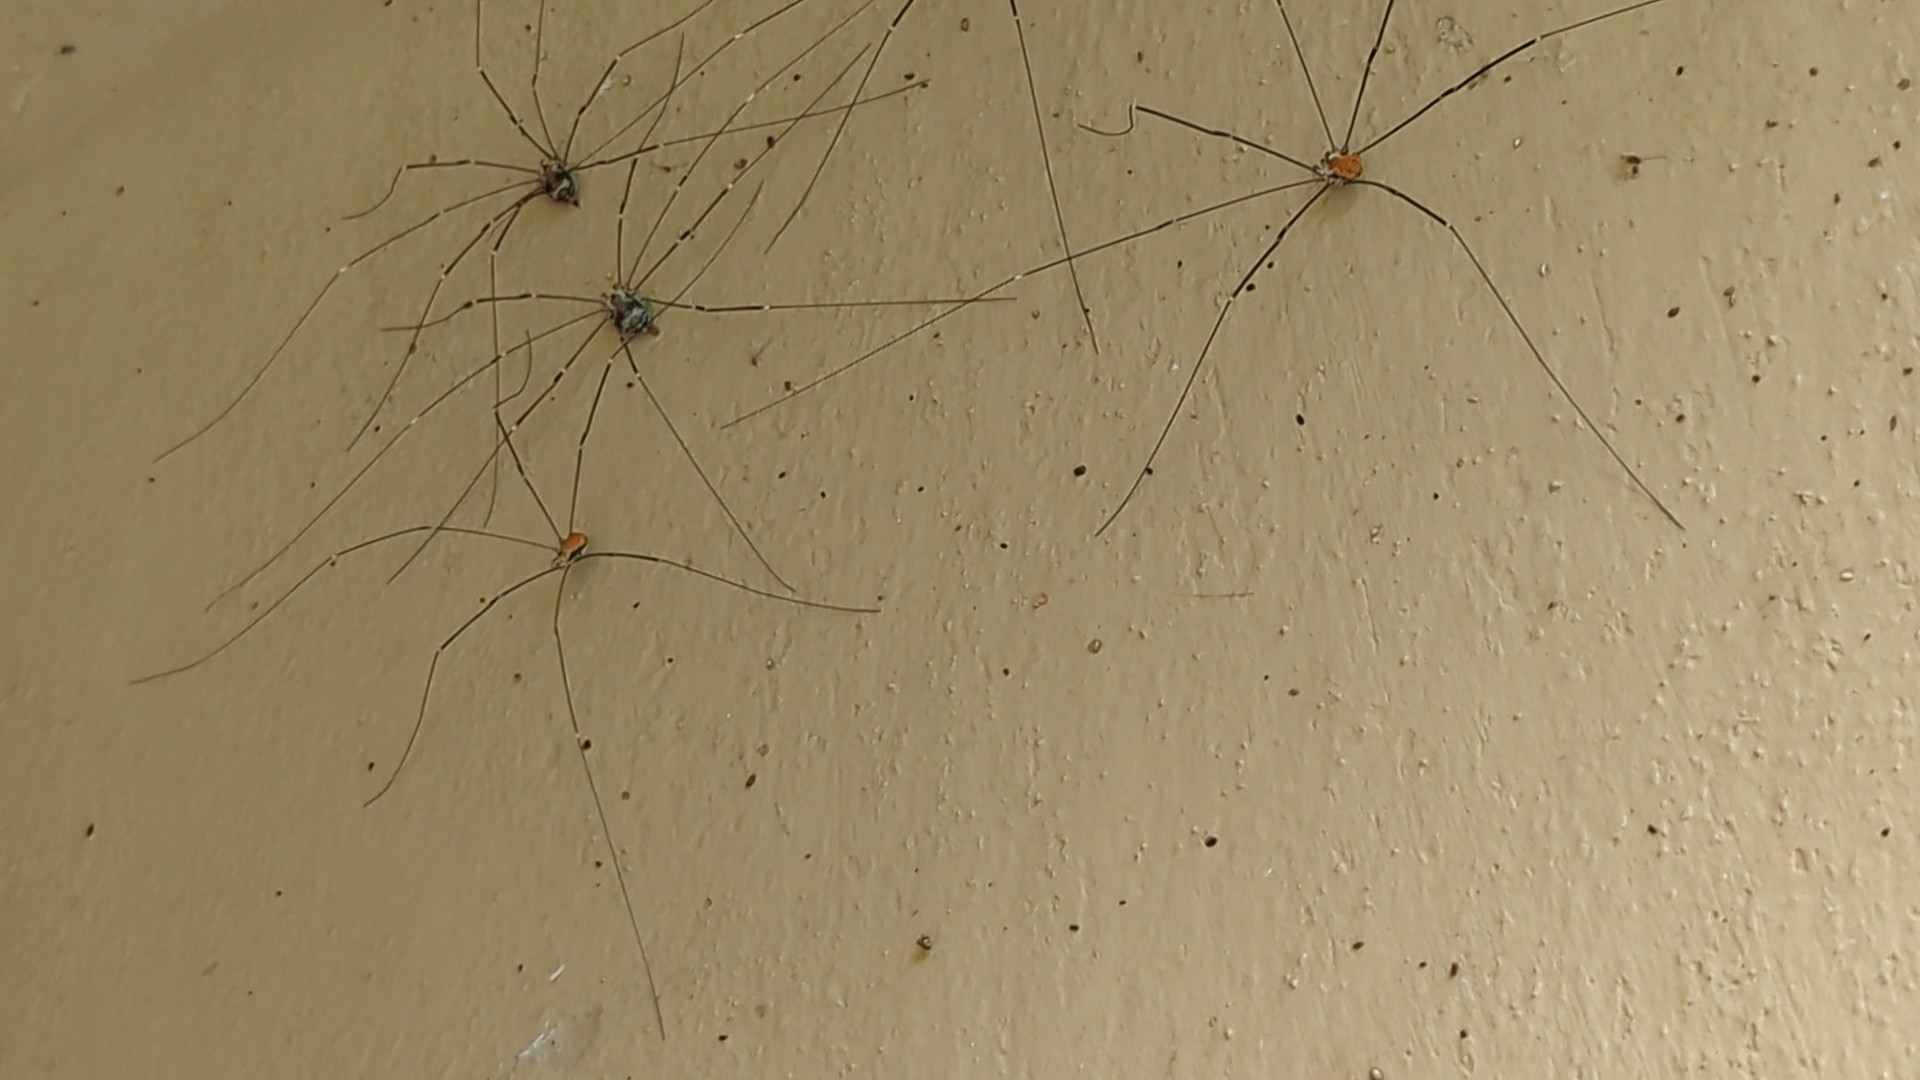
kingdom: Animalia
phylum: Arthropoda
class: Arachnida
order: Opiliones
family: Sclerosomatidae
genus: Leiobunum
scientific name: Leiobunum limbatum
